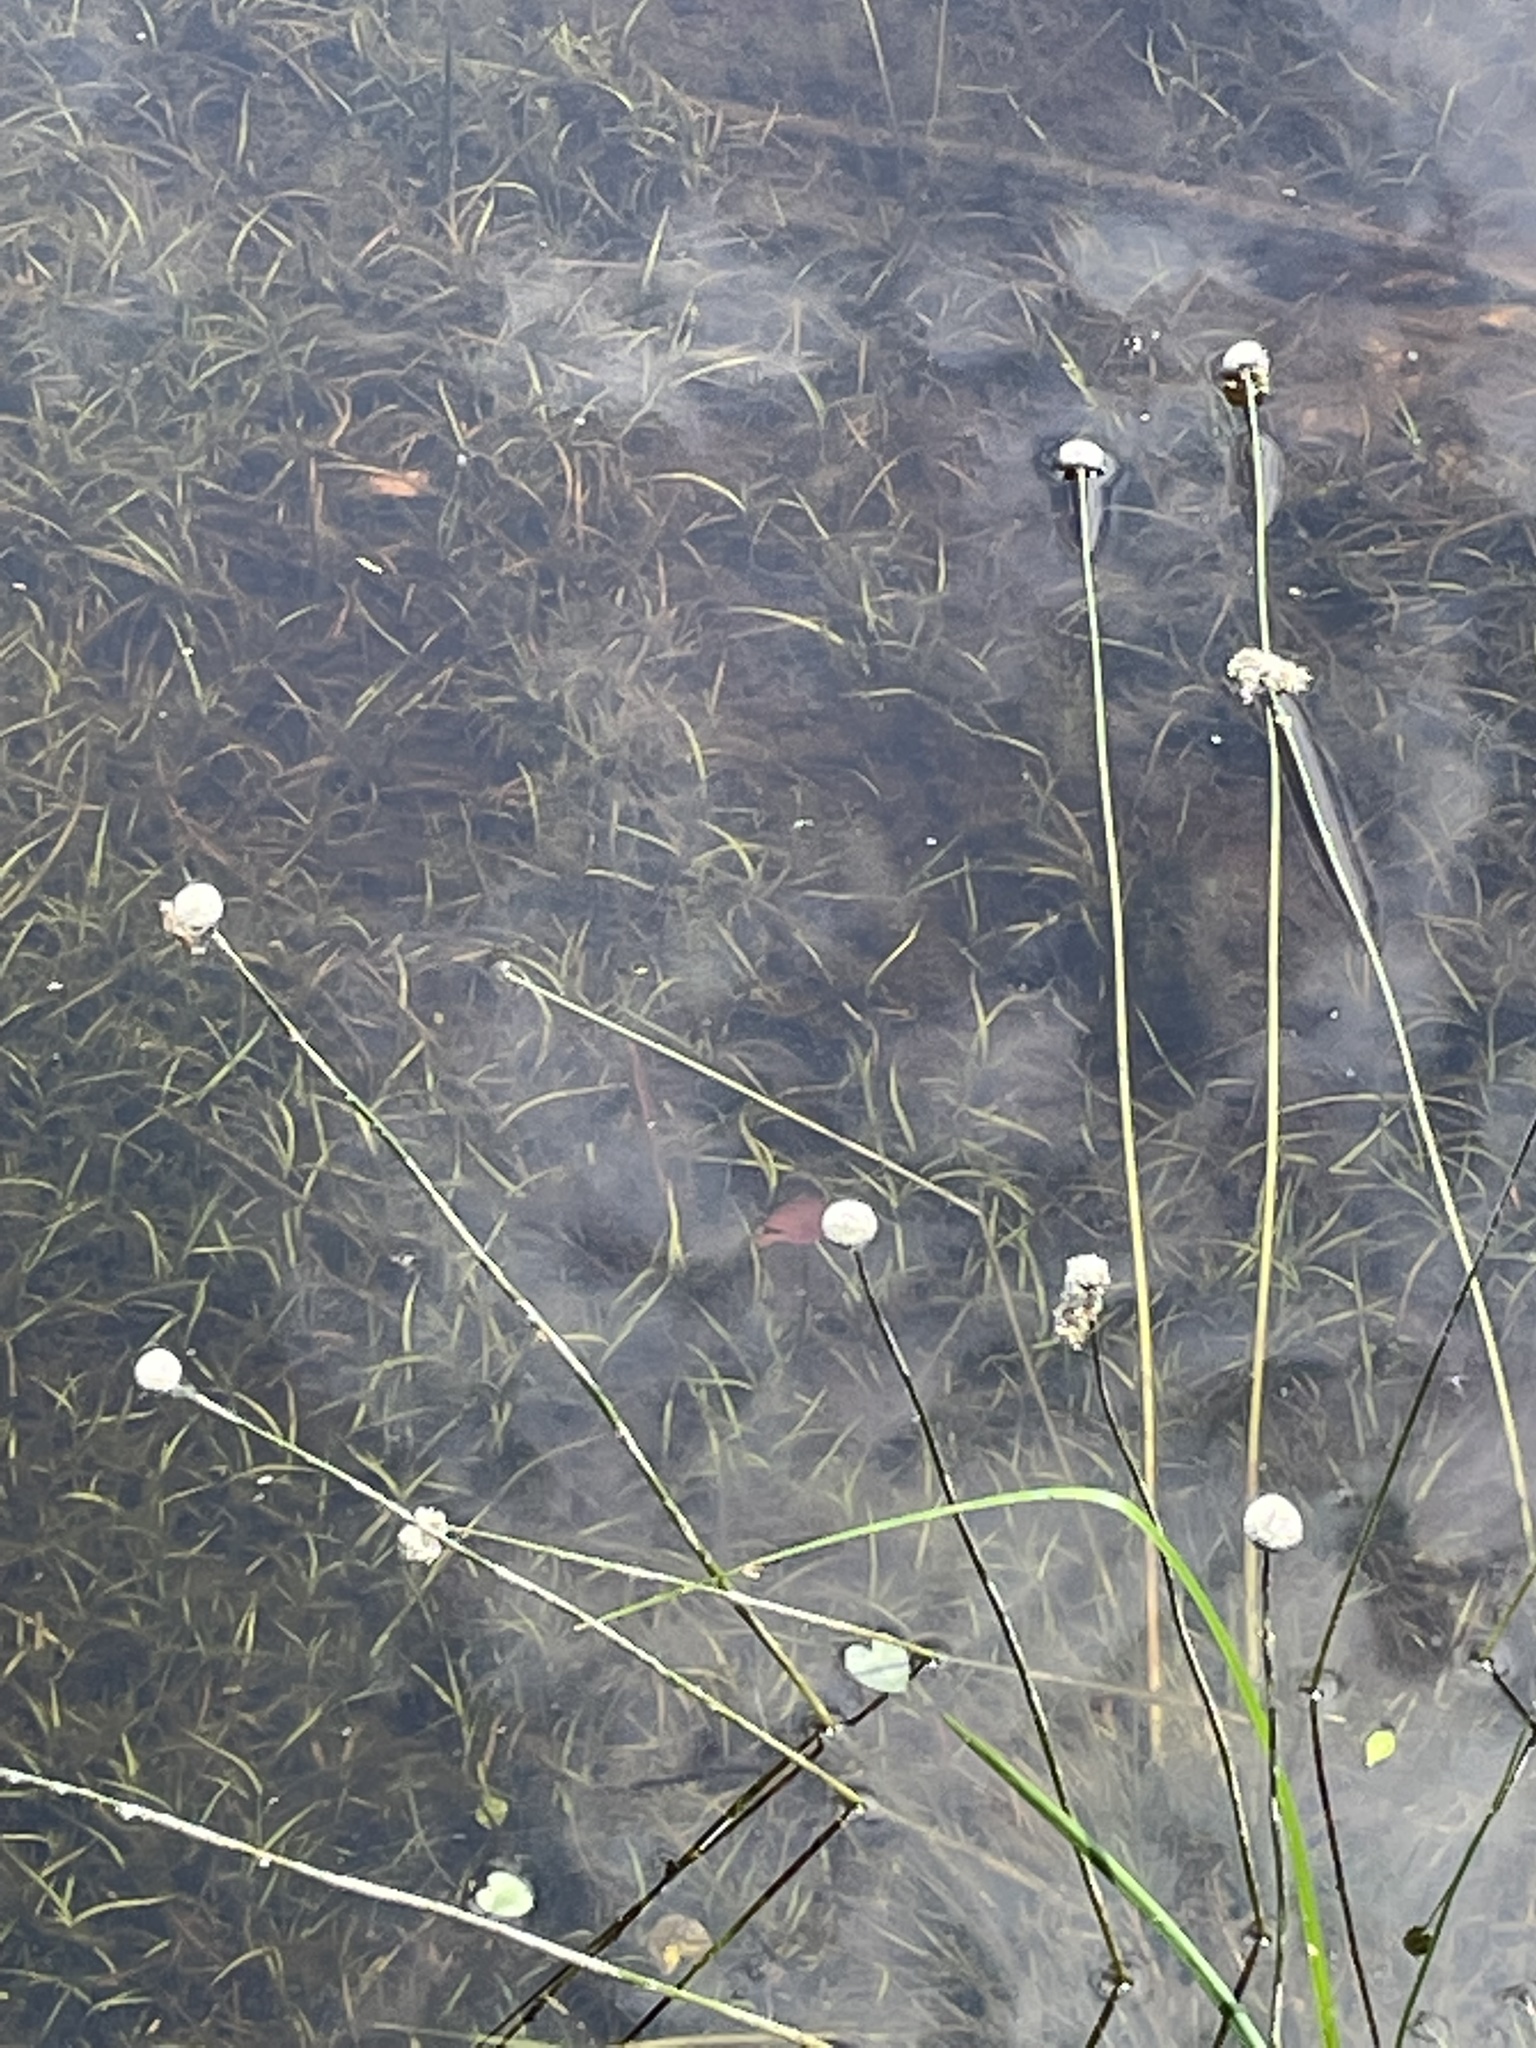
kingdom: Plantae
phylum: Tracheophyta
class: Liliopsida
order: Poales
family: Eriocaulaceae
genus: Eriocaulon
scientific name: Eriocaulon compressum
